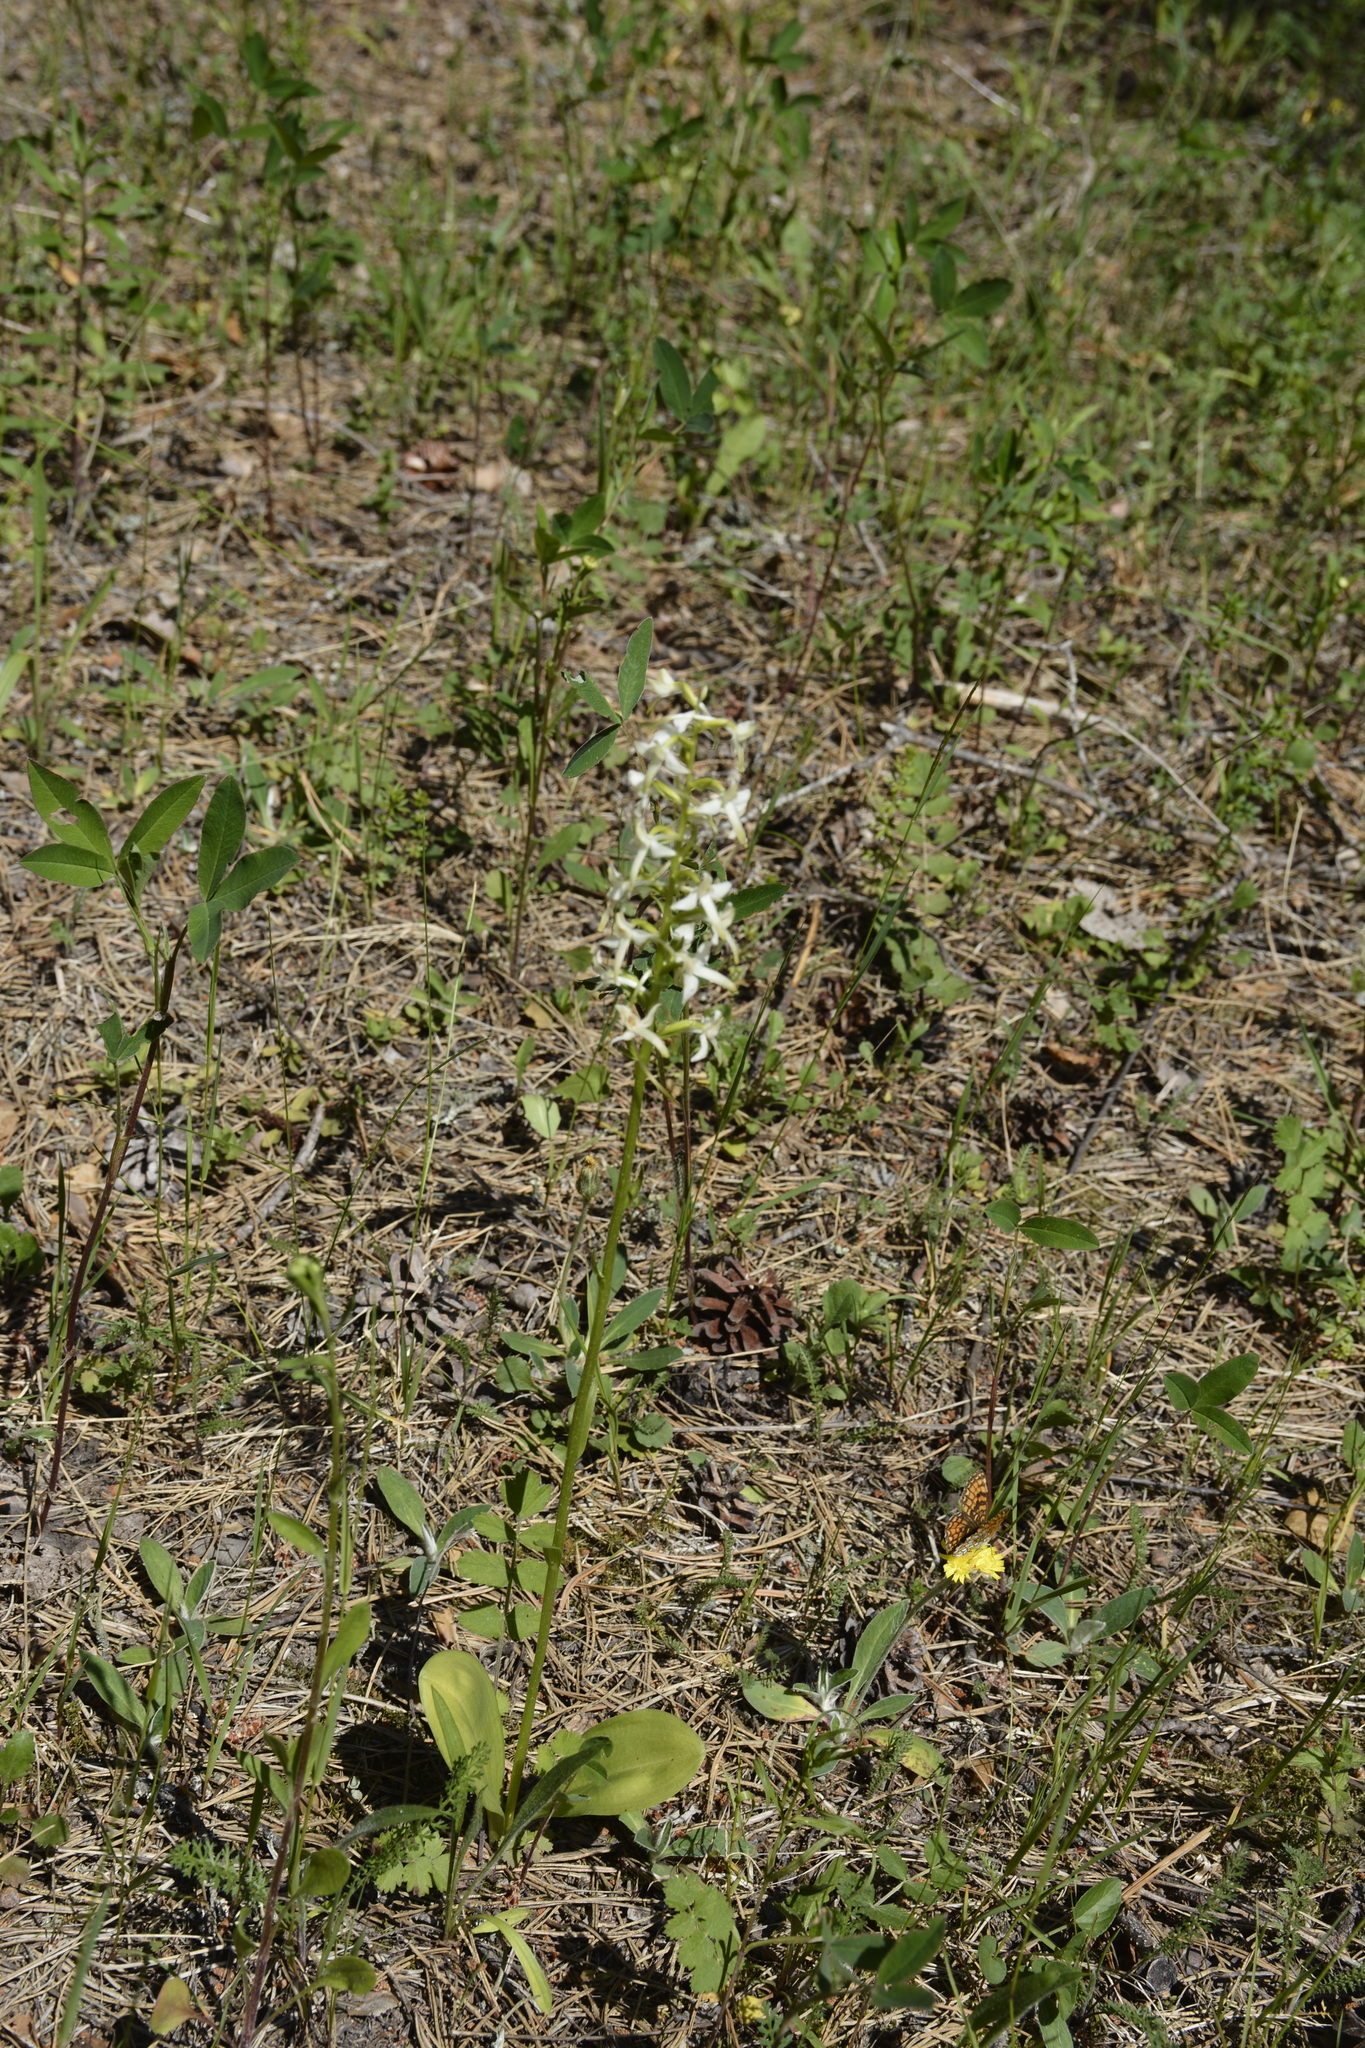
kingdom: Plantae
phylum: Tracheophyta
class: Liliopsida
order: Asparagales
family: Orchidaceae
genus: Platanthera
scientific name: Platanthera bifolia
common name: Lesser butterfly-orchid
